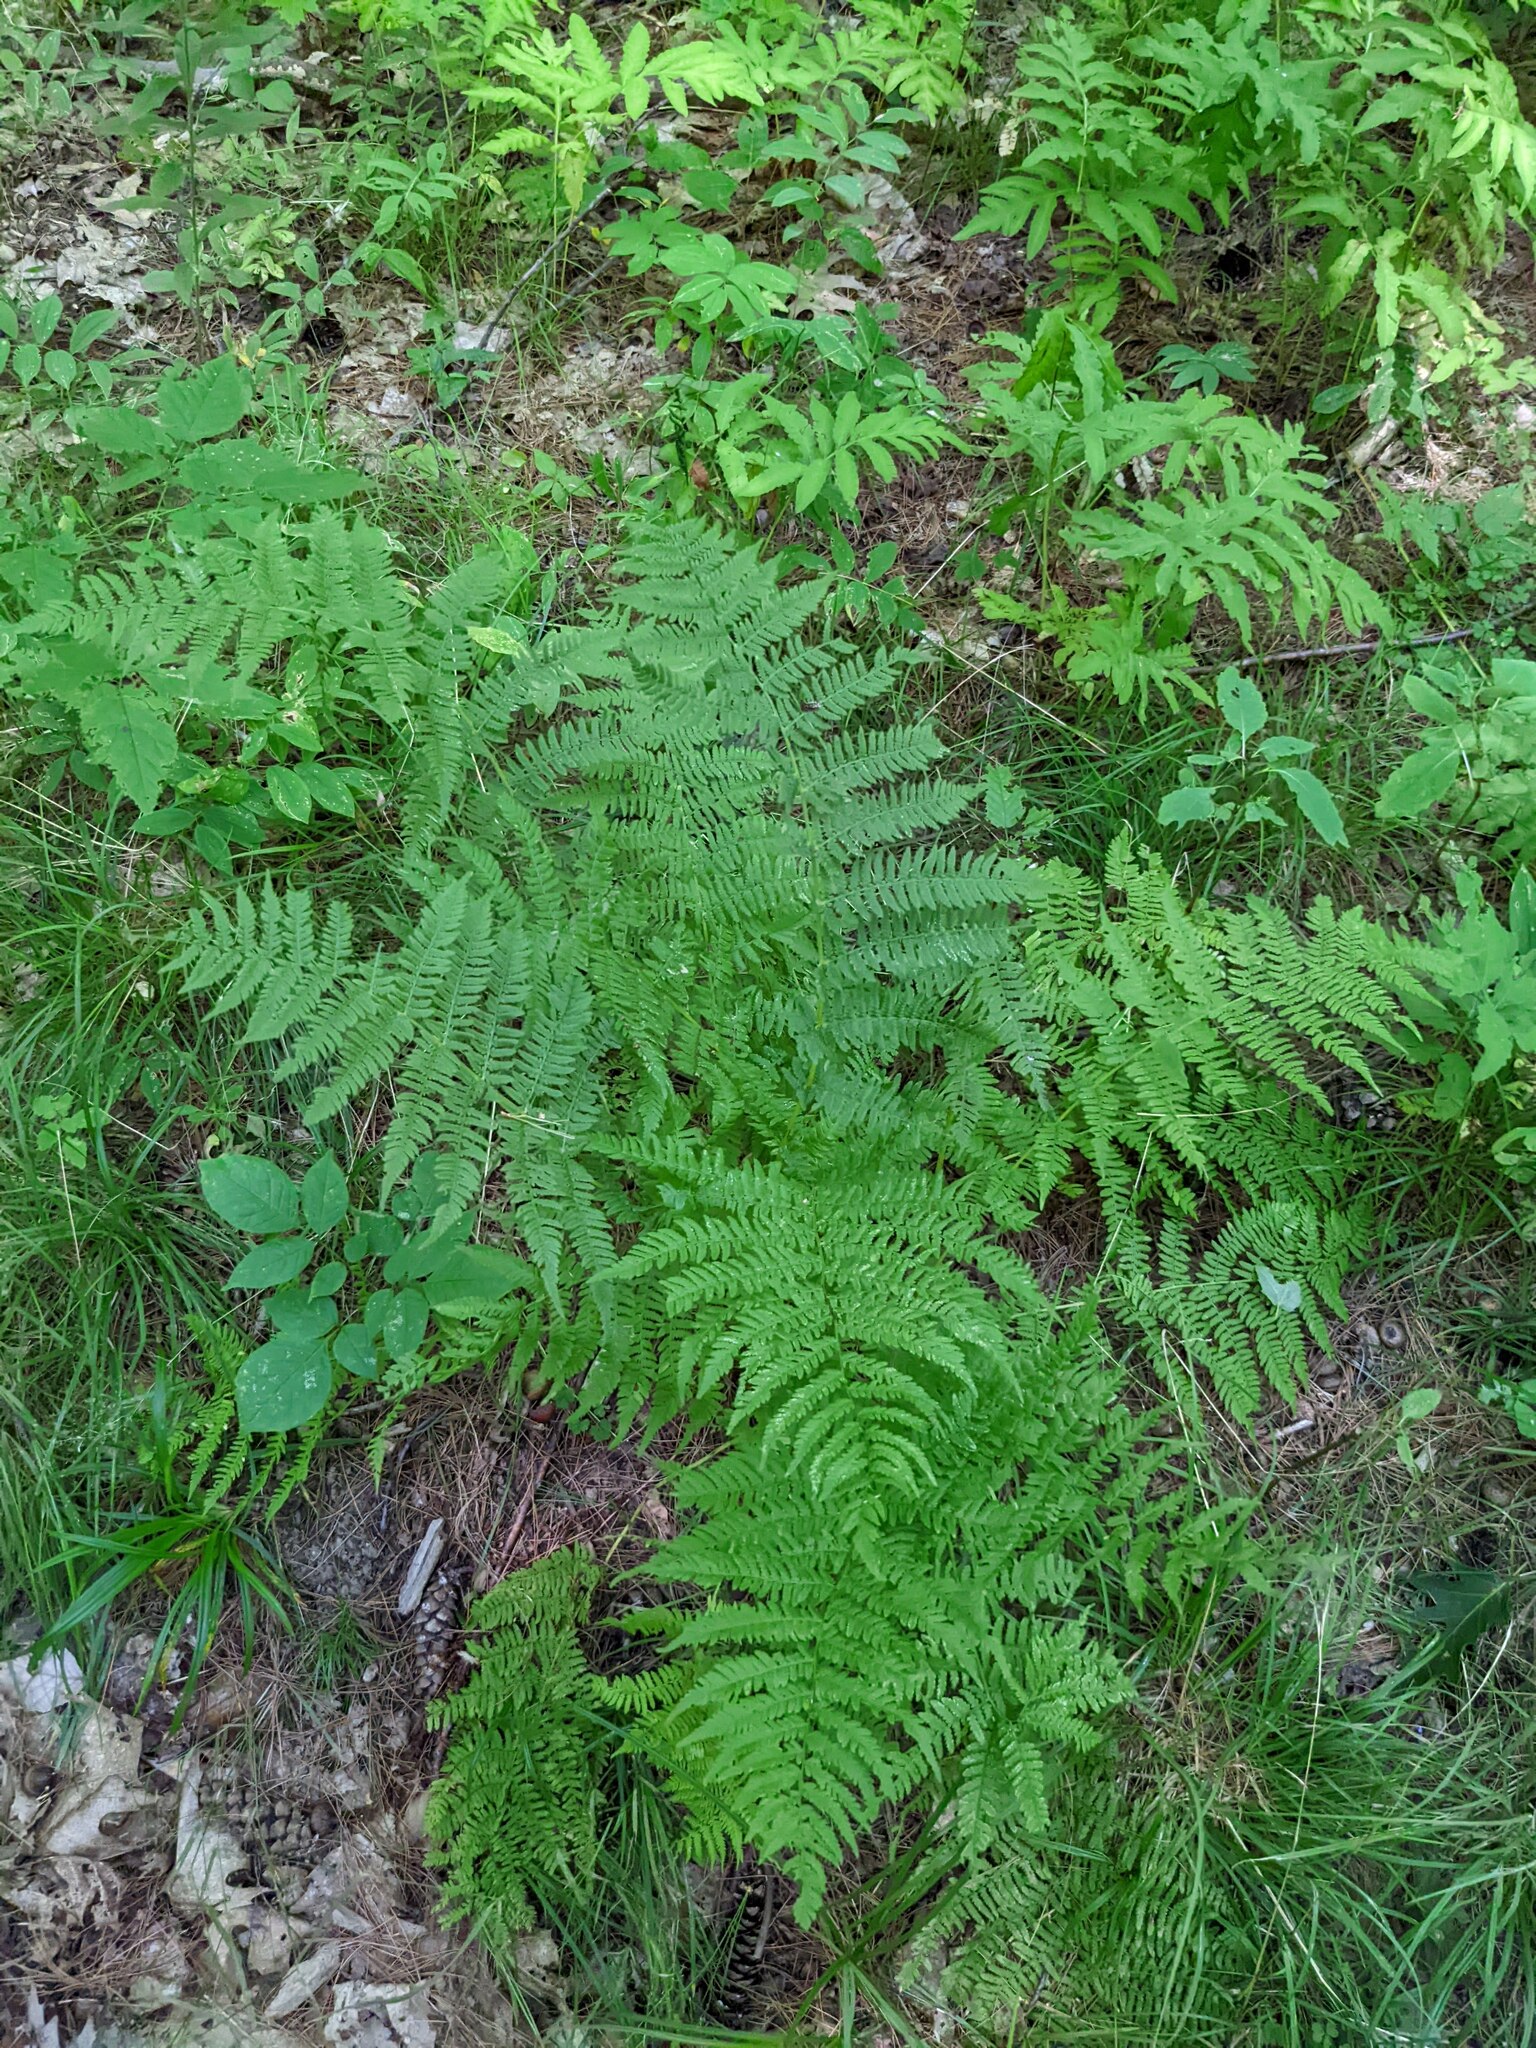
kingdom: Plantae
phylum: Tracheophyta
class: Polypodiopsida
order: Polypodiales
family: Athyriaceae
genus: Athyrium
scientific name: Athyrium angustum
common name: Northern lady fern
